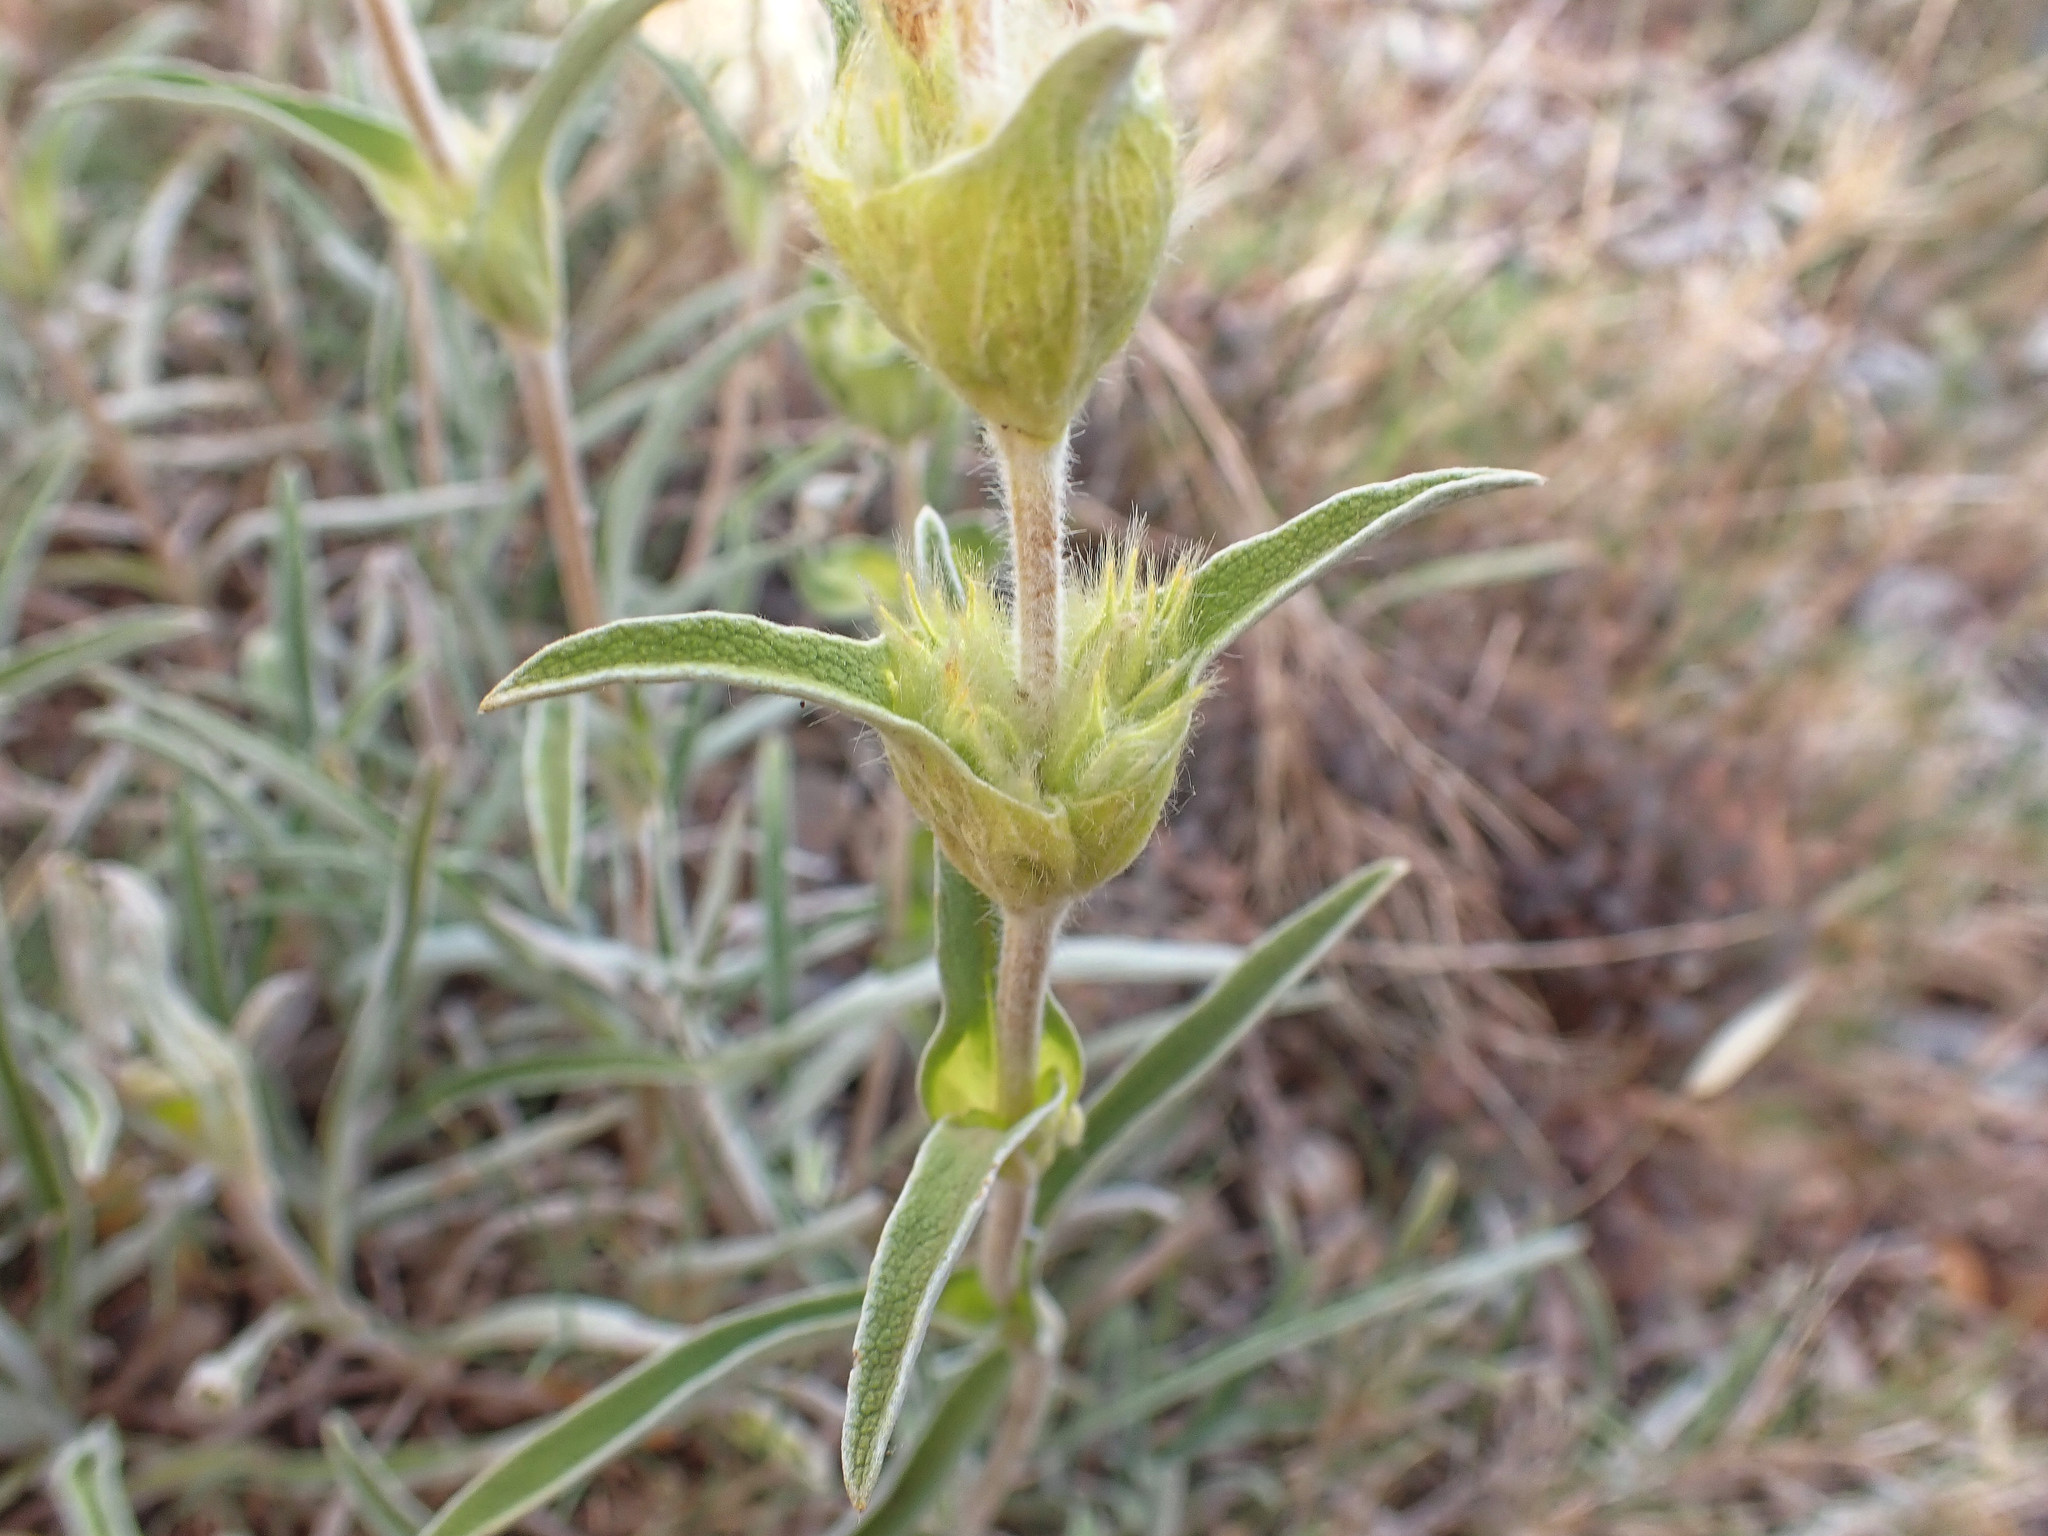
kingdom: Plantae
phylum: Tracheophyta
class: Magnoliopsida
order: Lamiales
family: Lamiaceae
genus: Phlomis
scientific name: Phlomis lychnitis
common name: Lampwickplant
